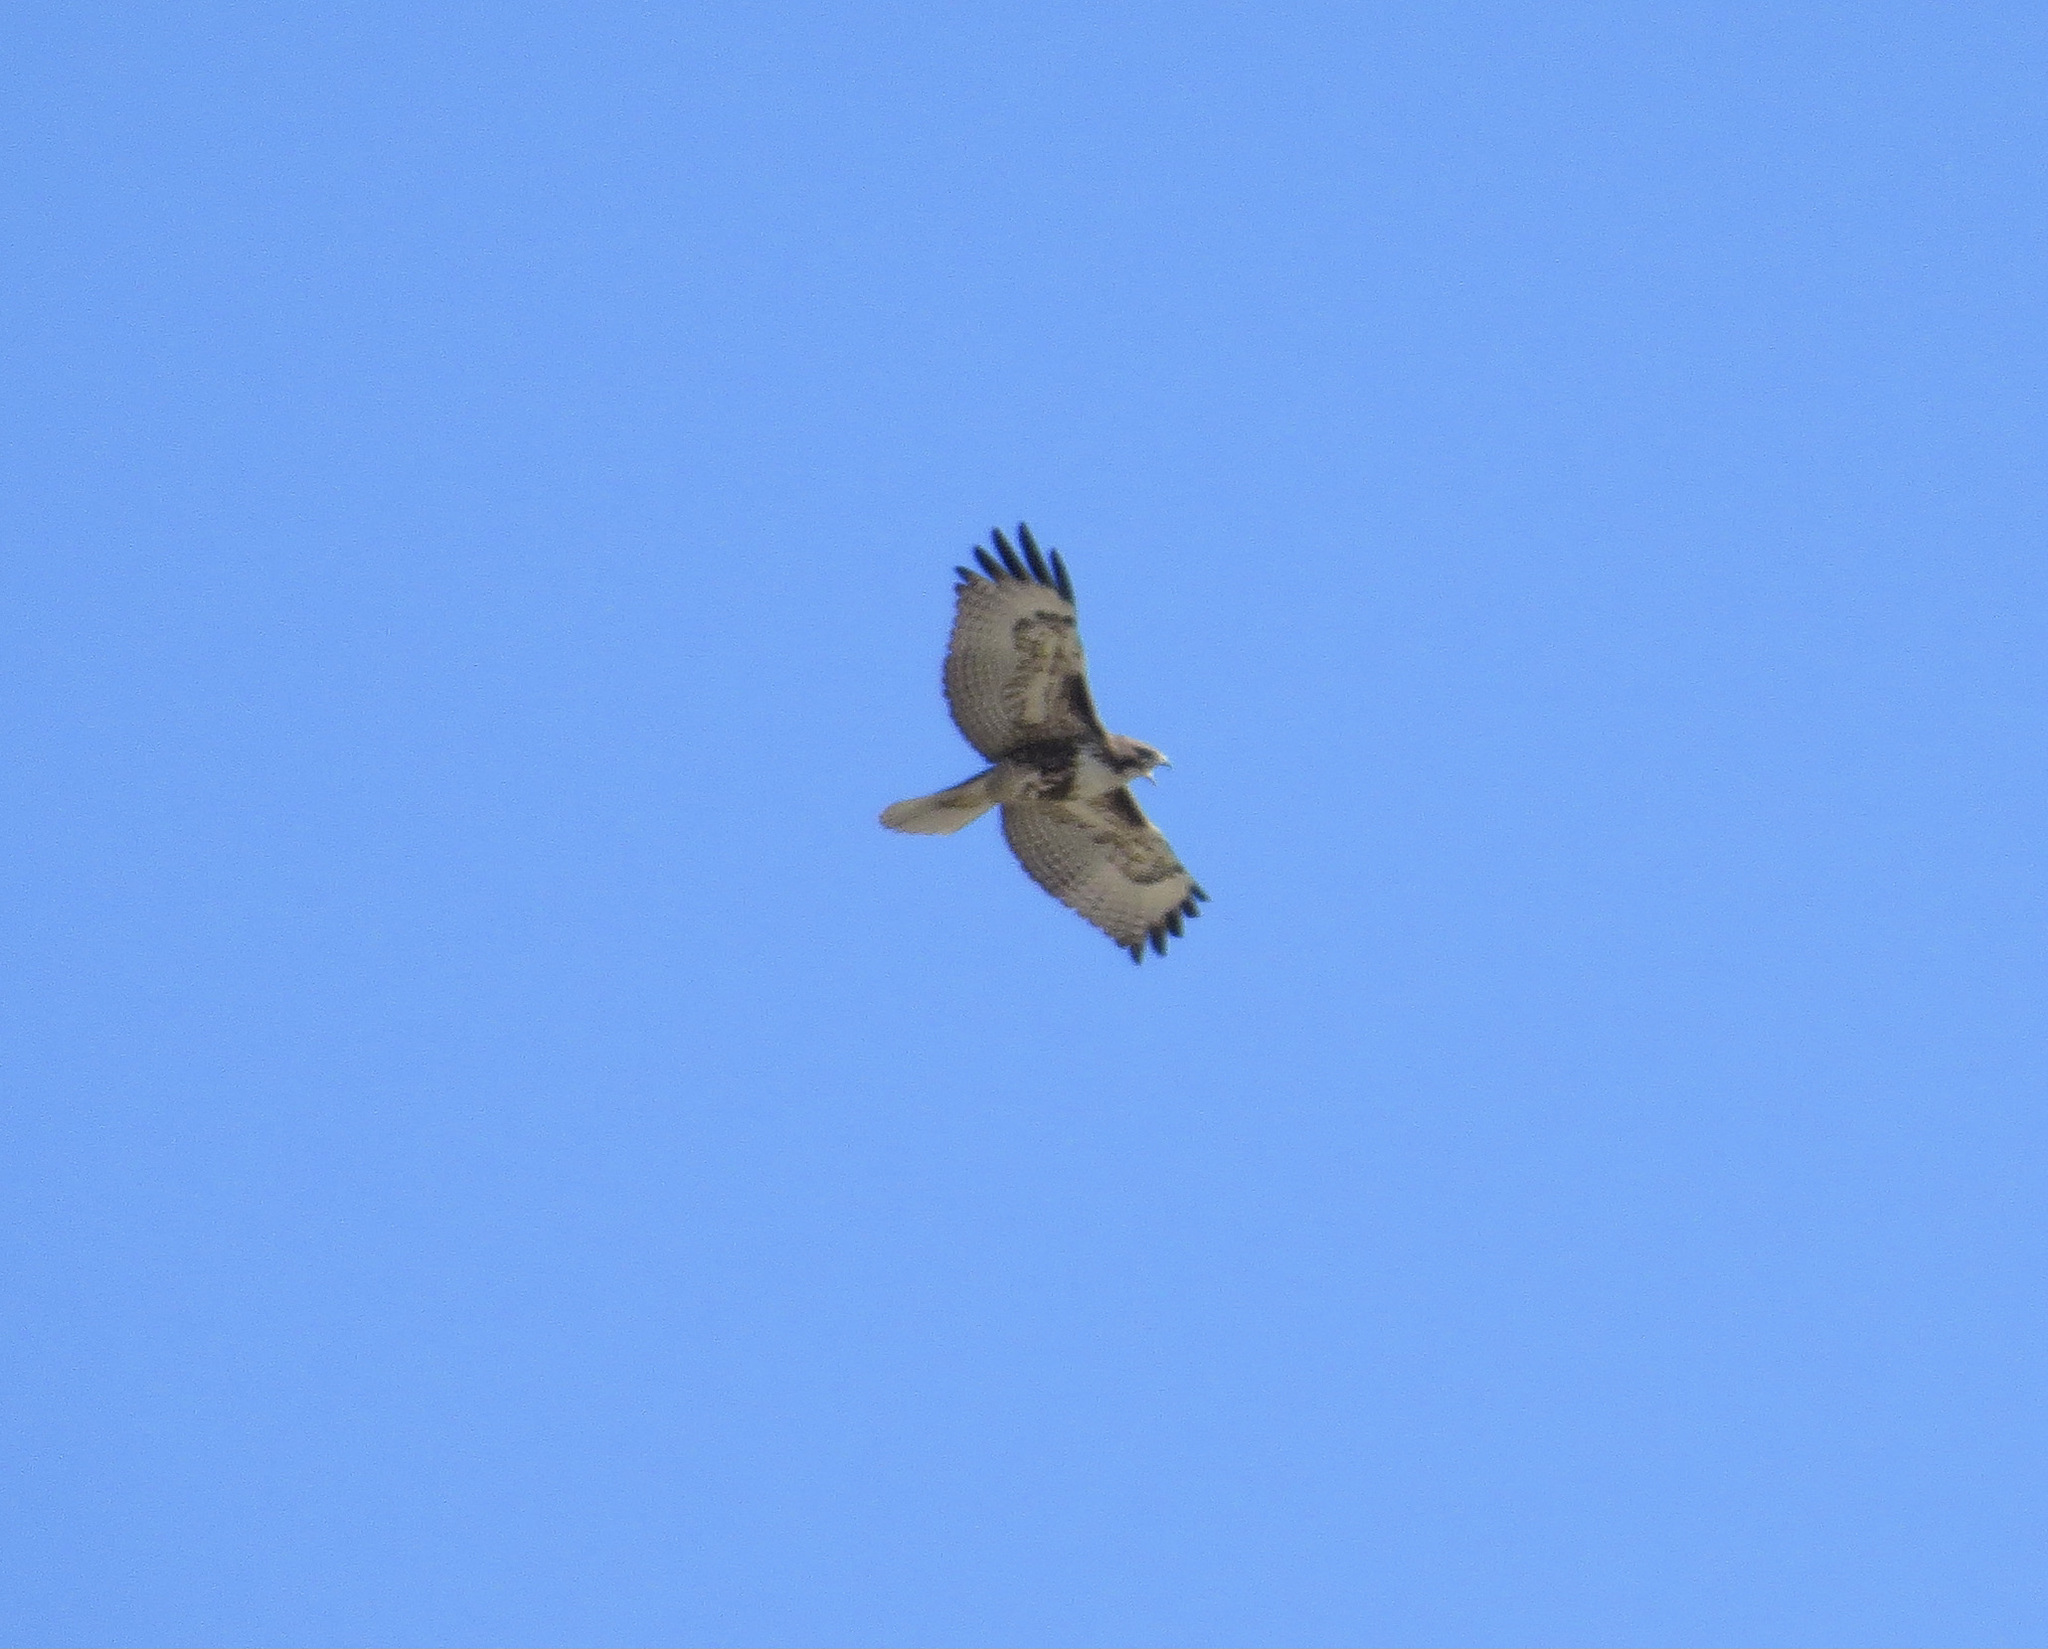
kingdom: Animalia
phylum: Chordata
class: Aves
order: Accipitriformes
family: Accipitridae
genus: Buteo
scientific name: Buteo jamaicensis
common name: Red-tailed hawk
